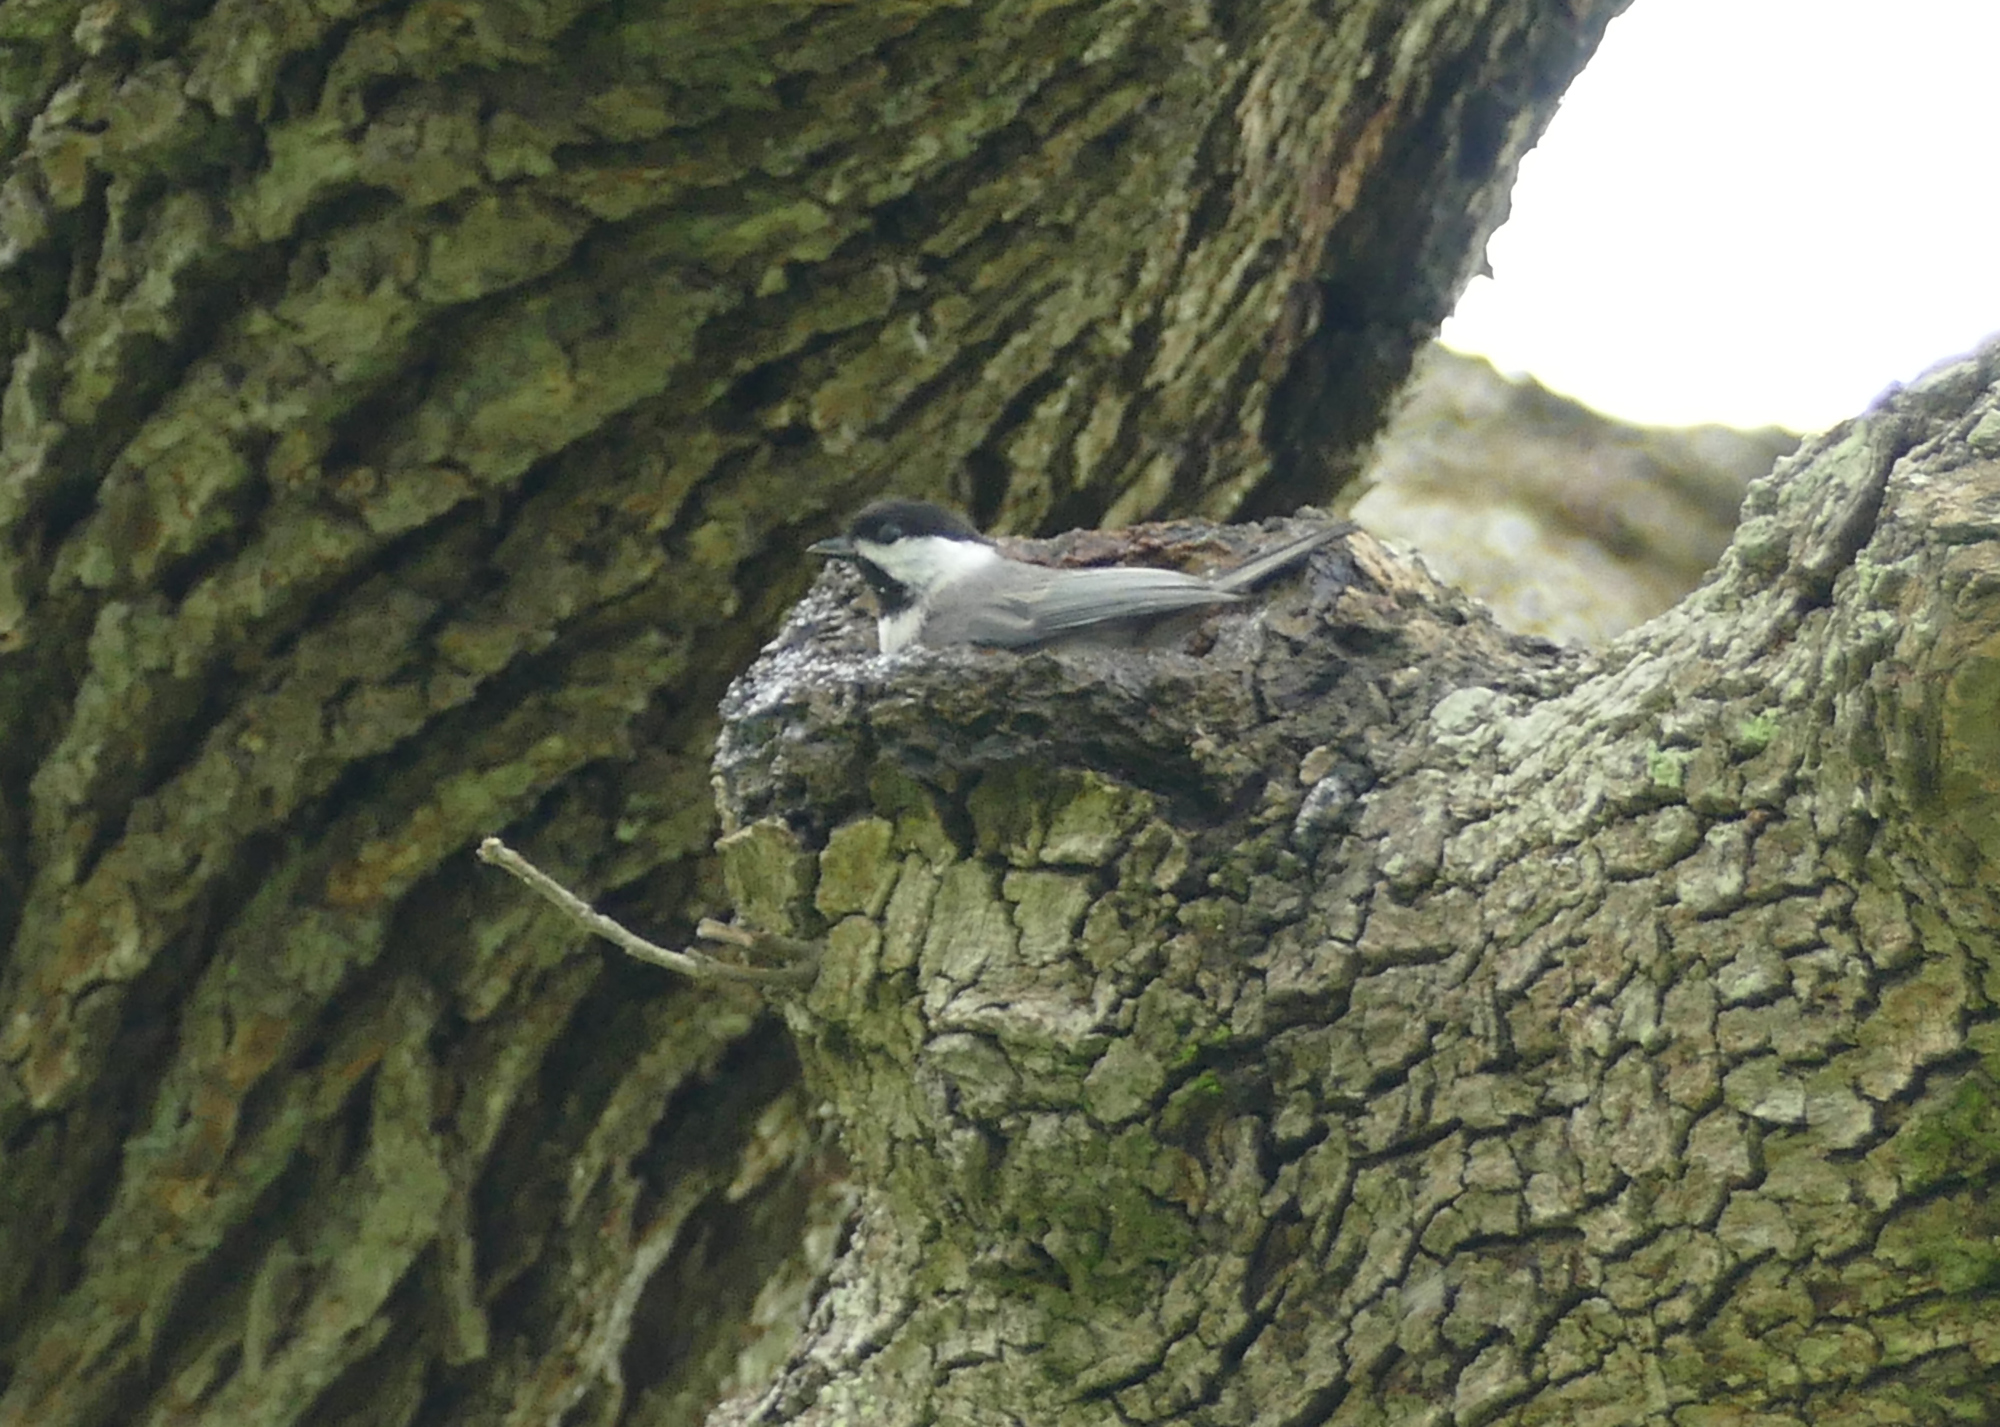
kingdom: Animalia
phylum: Chordata
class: Aves
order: Passeriformes
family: Paridae
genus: Poecile
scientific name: Poecile carolinensis
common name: Carolina chickadee
